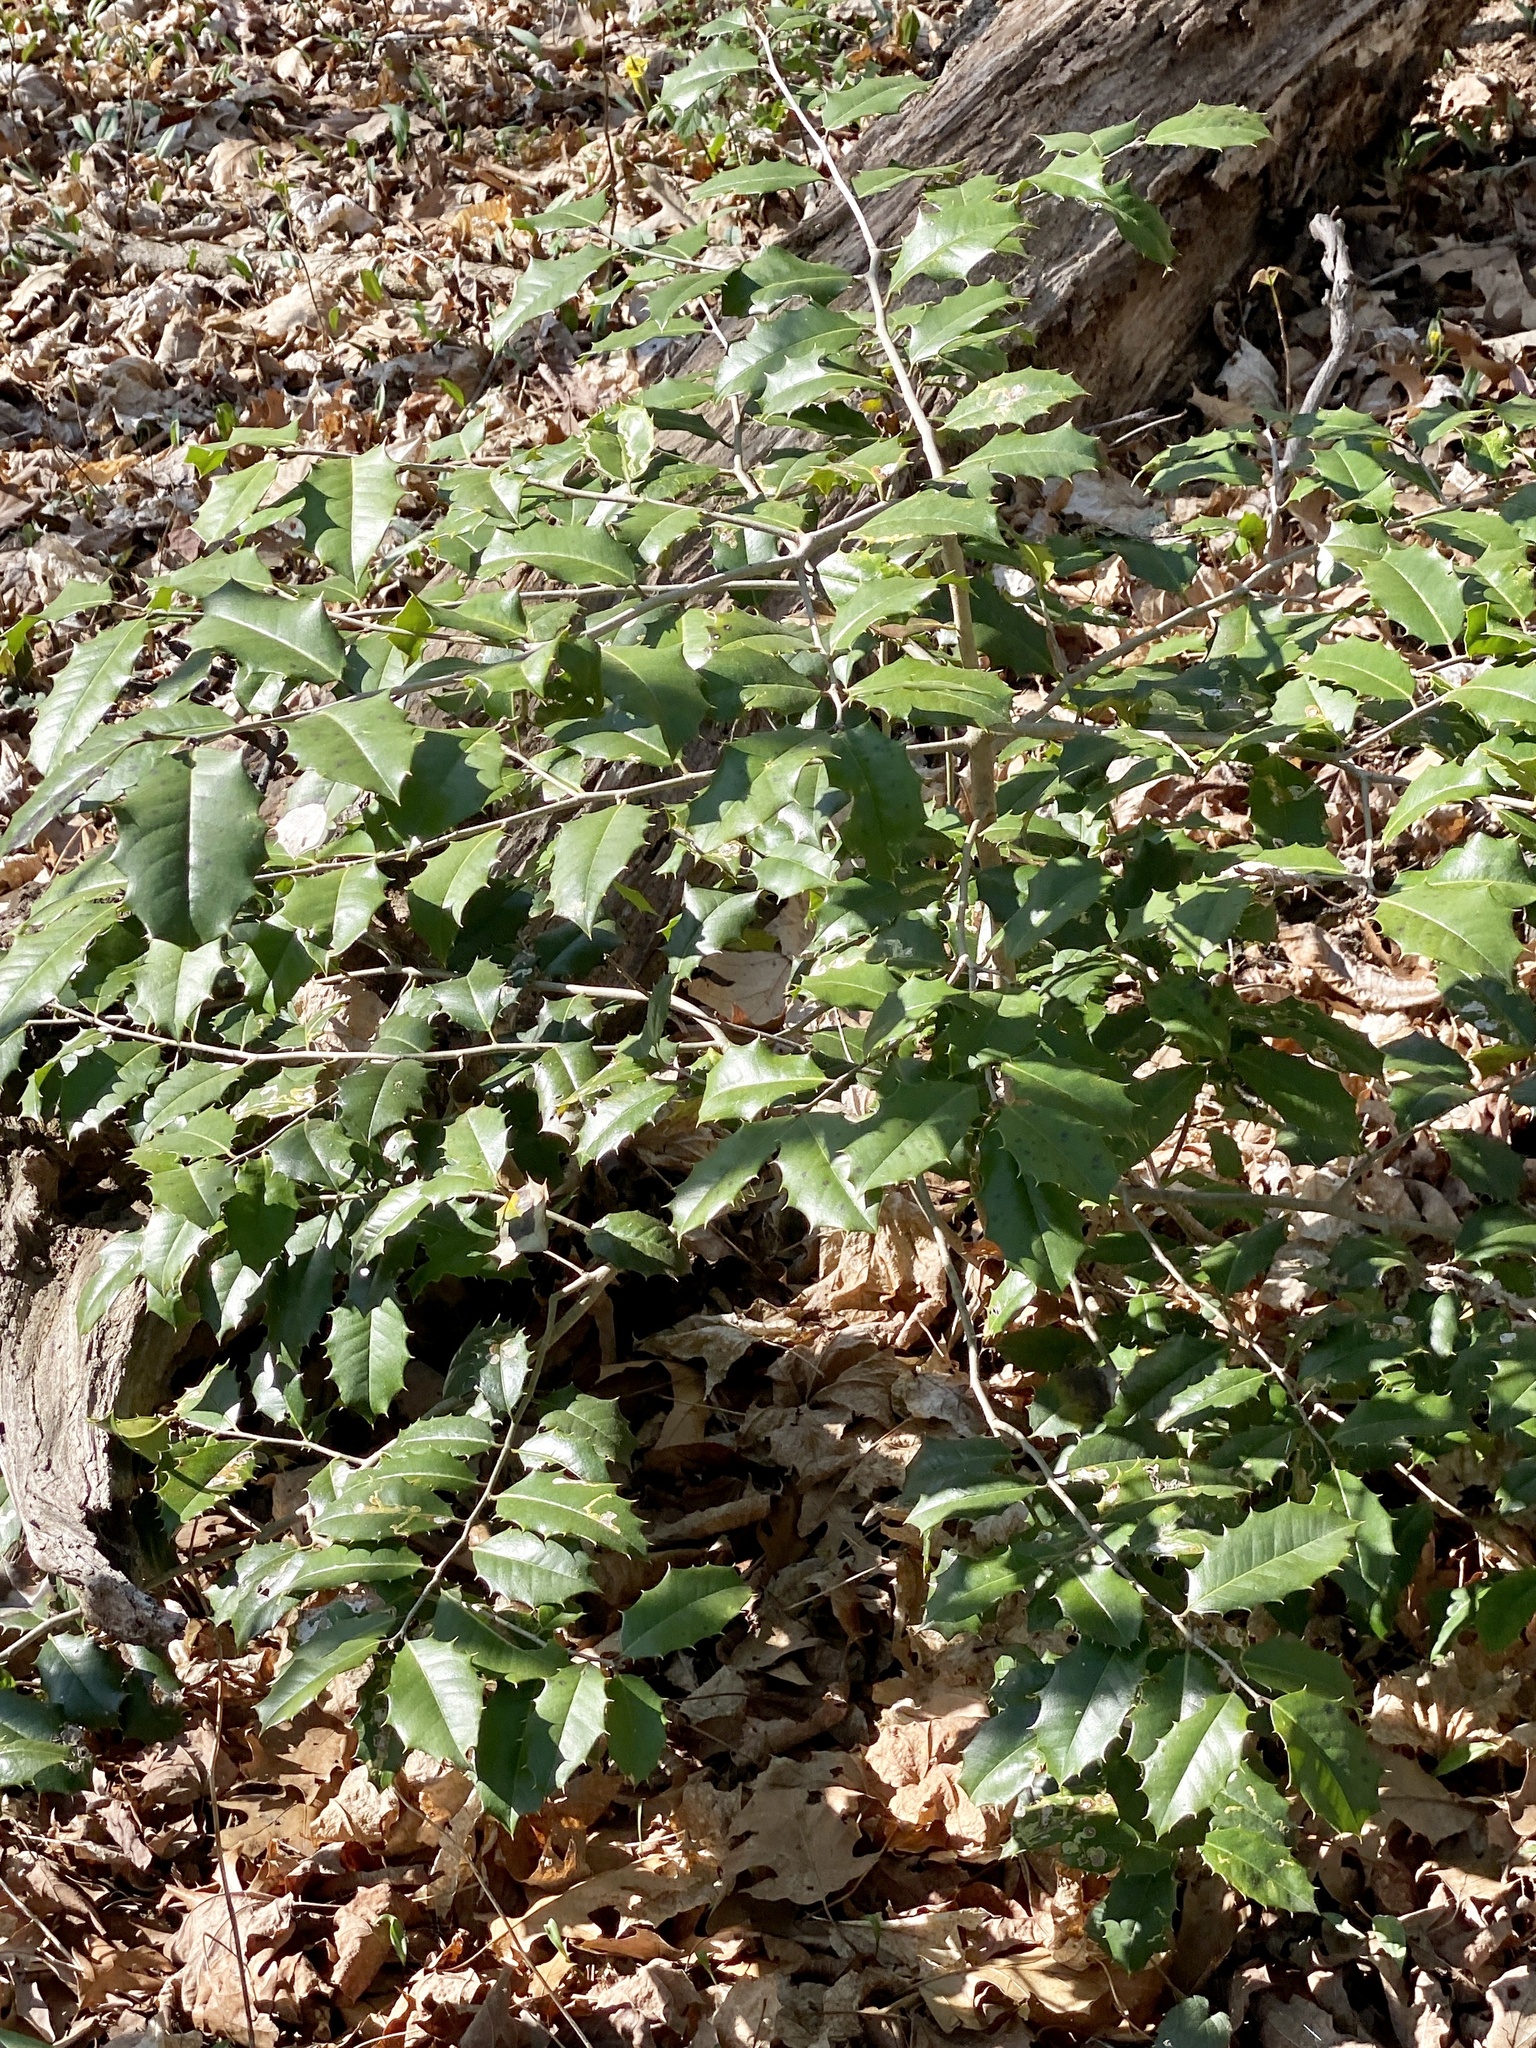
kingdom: Plantae
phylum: Tracheophyta
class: Magnoliopsida
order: Aquifoliales
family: Aquifoliaceae
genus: Ilex
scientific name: Ilex opaca
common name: American holly
